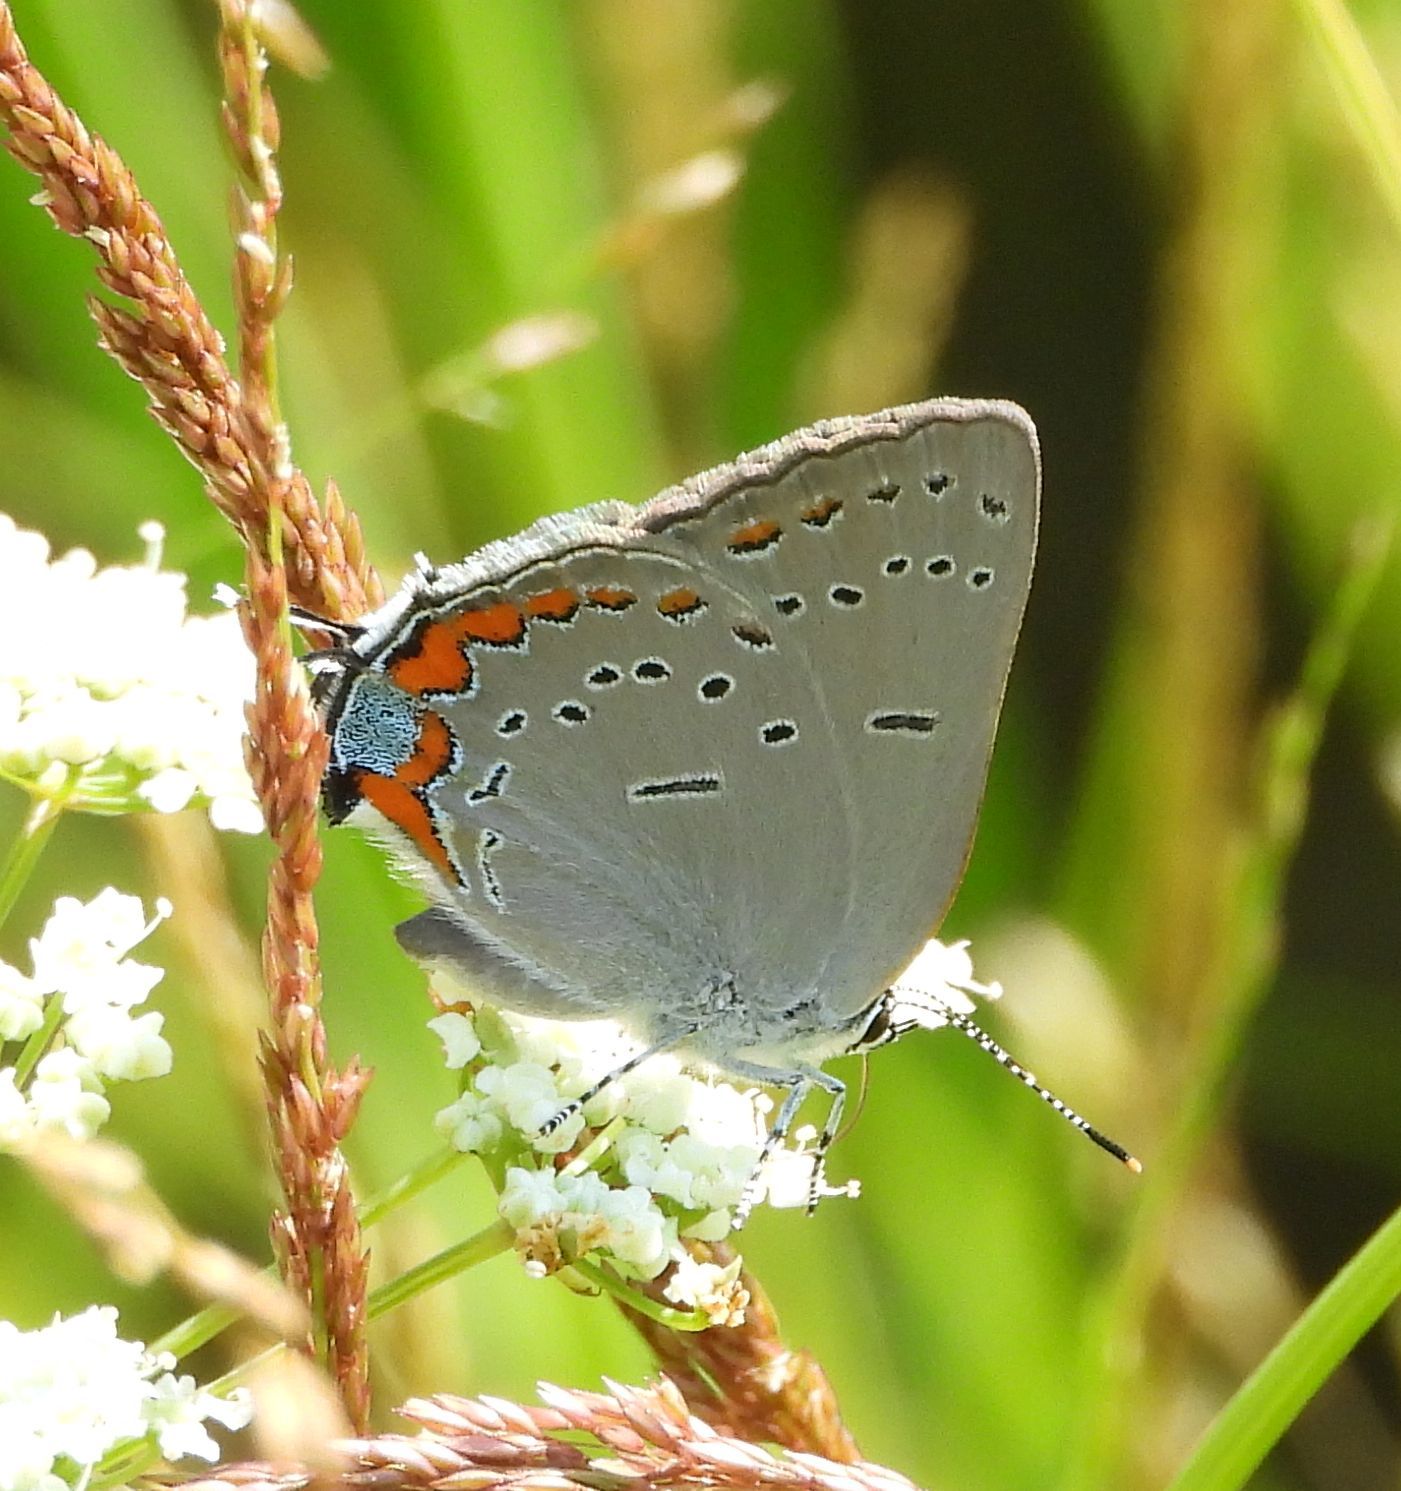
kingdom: Animalia
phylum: Arthropoda
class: Insecta
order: Lepidoptera
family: Lycaenidae
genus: Strymon
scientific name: Strymon acadica
